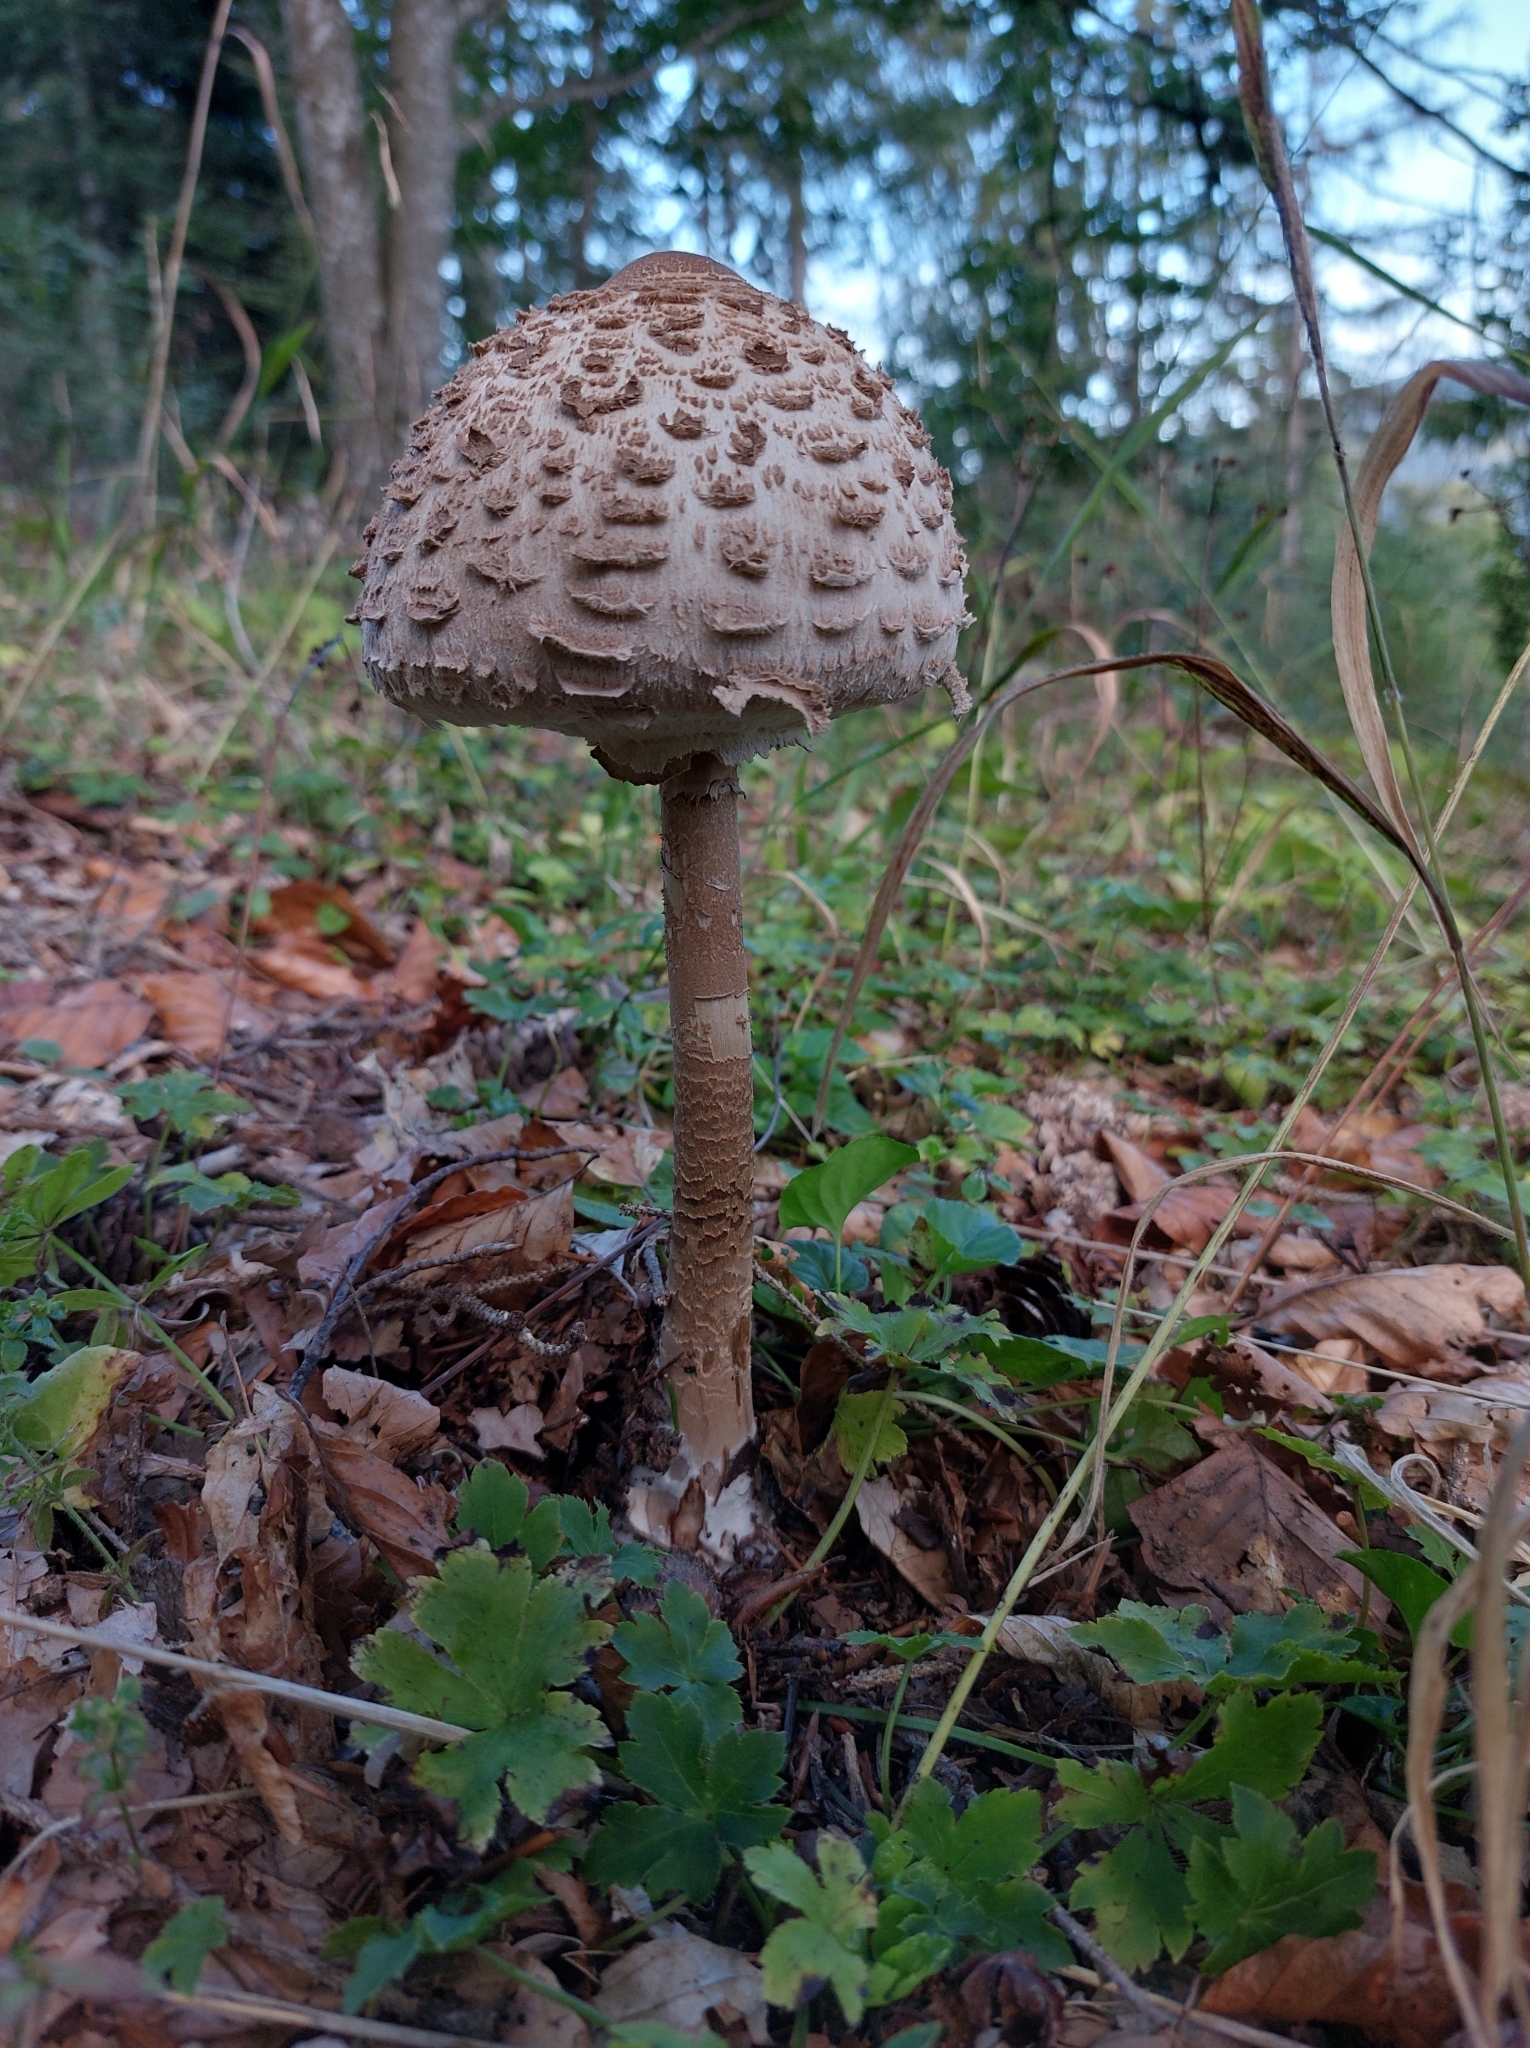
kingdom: Fungi
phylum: Basidiomycota
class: Agaricomycetes
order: Agaricales
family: Agaricaceae
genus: Macrolepiota
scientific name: Macrolepiota procera
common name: Parasol
